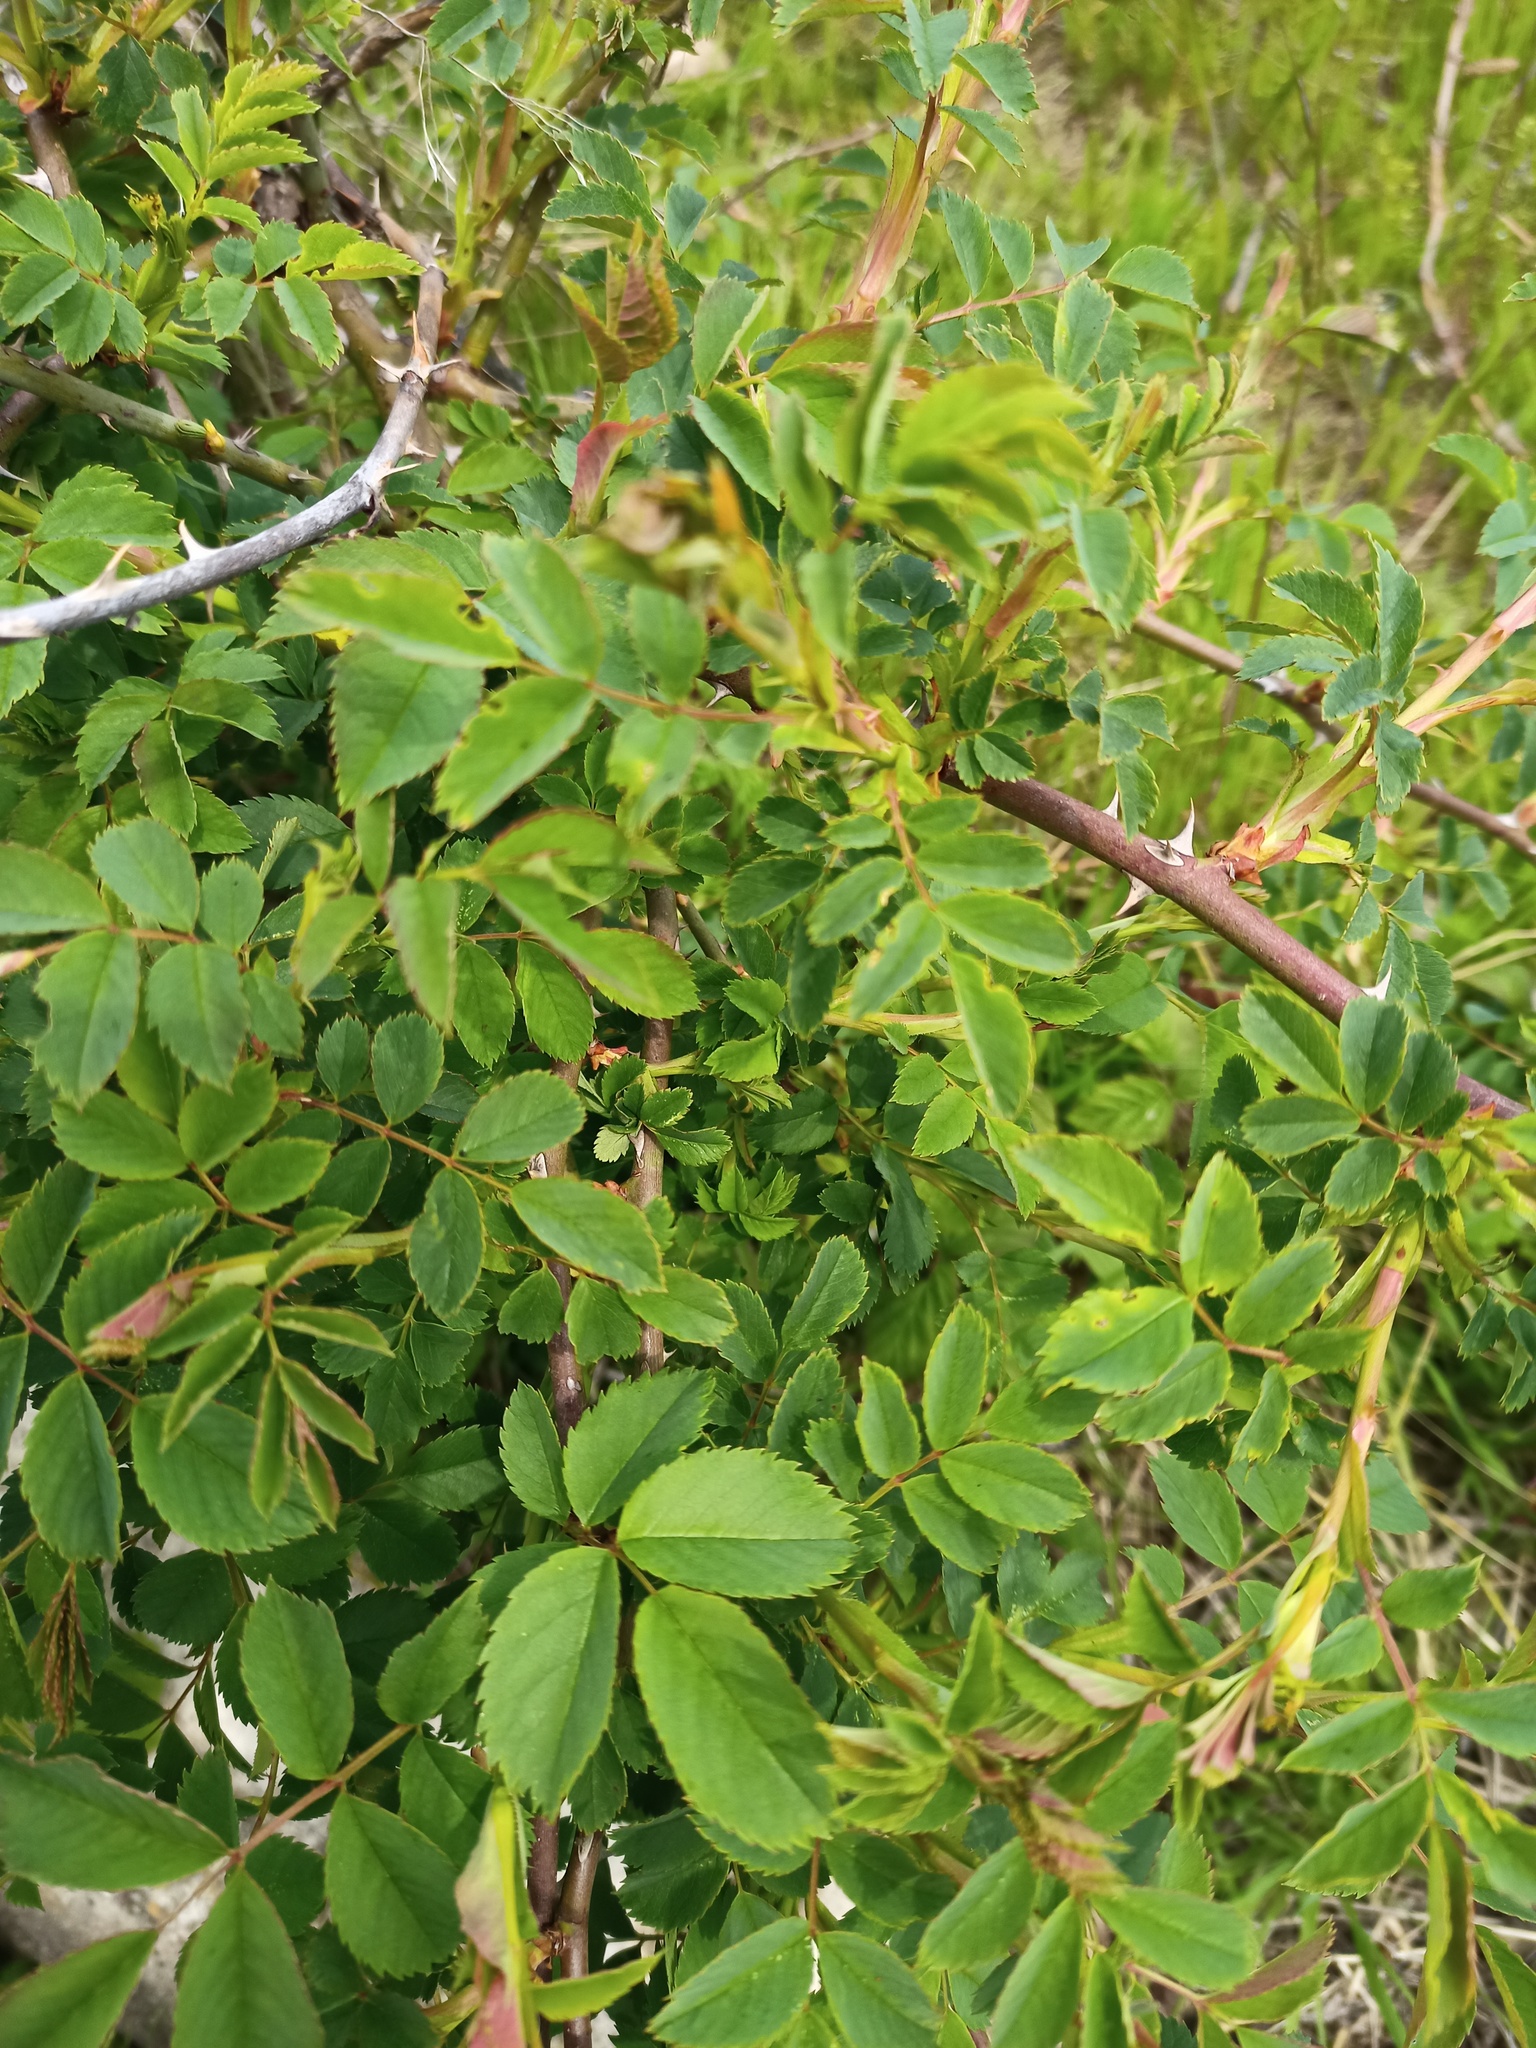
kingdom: Plantae
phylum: Tracheophyta
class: Magnoliopsida
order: Rosales
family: Rosaceae
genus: Rosa
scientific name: Rosa canina
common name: Dog rose
